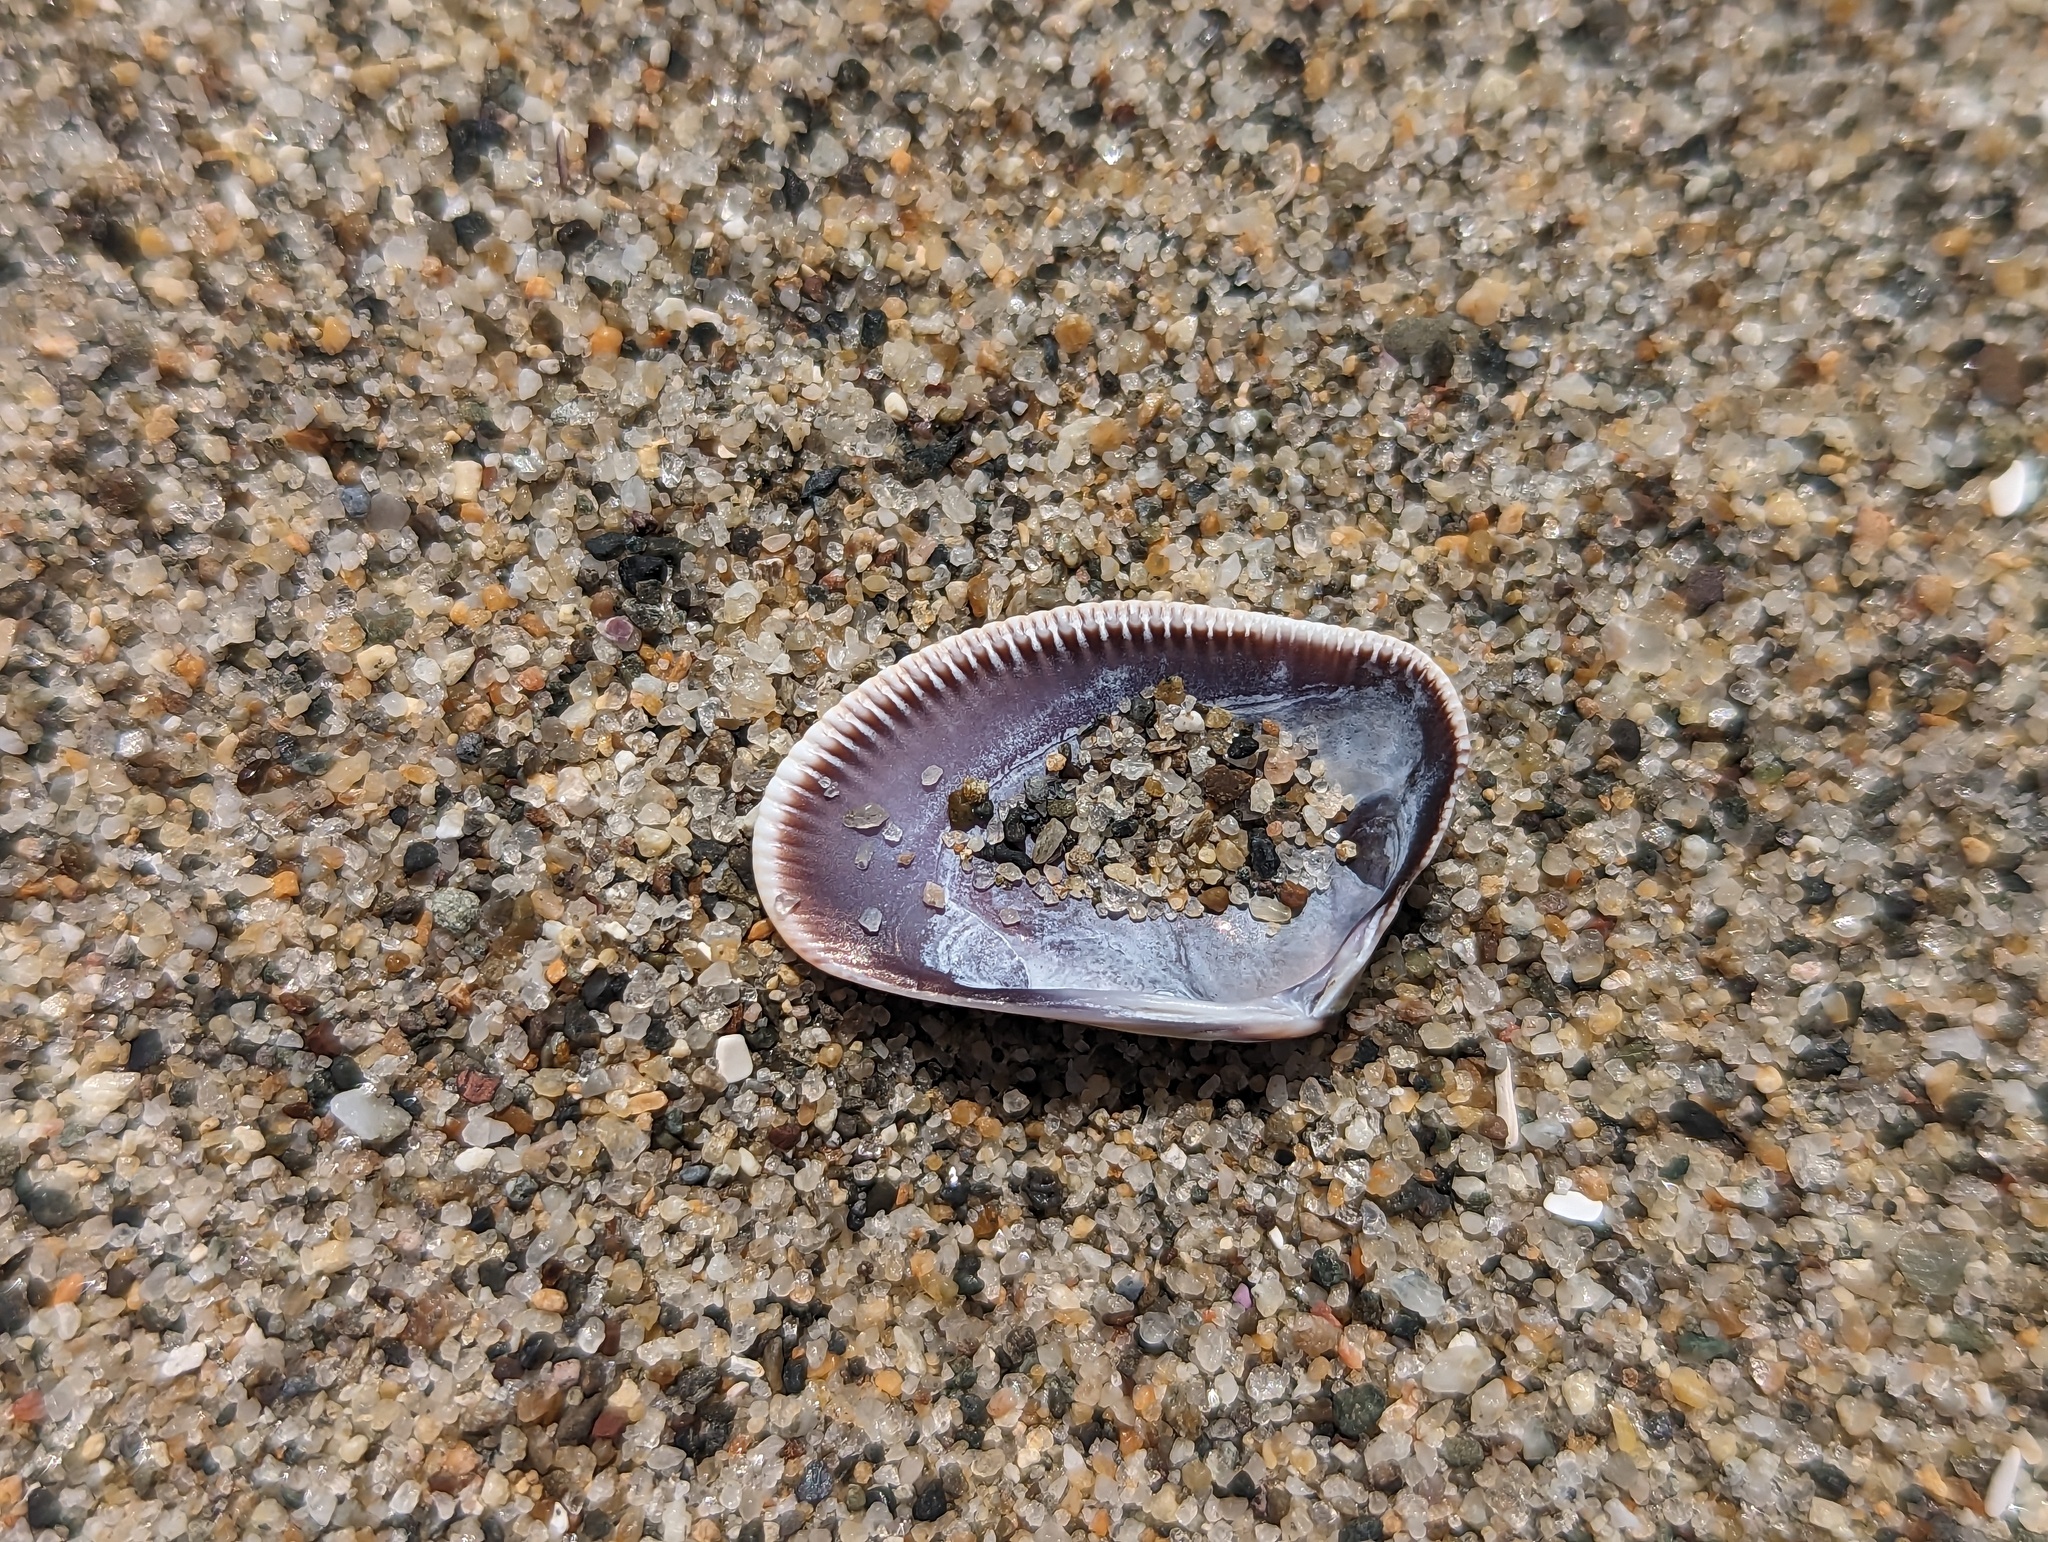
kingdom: Animalia
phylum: Mollusca
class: Bivalvia
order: Cardiida
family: Donacidae
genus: Donax
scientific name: Donax gouldii
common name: Gould beanclam
